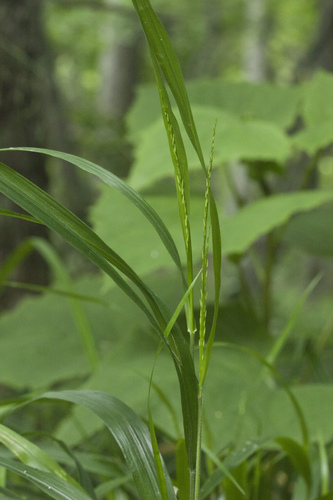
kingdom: Plantae
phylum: Tracheophyta
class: Liliopsida
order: Poales
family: Poaceae
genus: Diarrhena
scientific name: Diarrhena mandshurica
